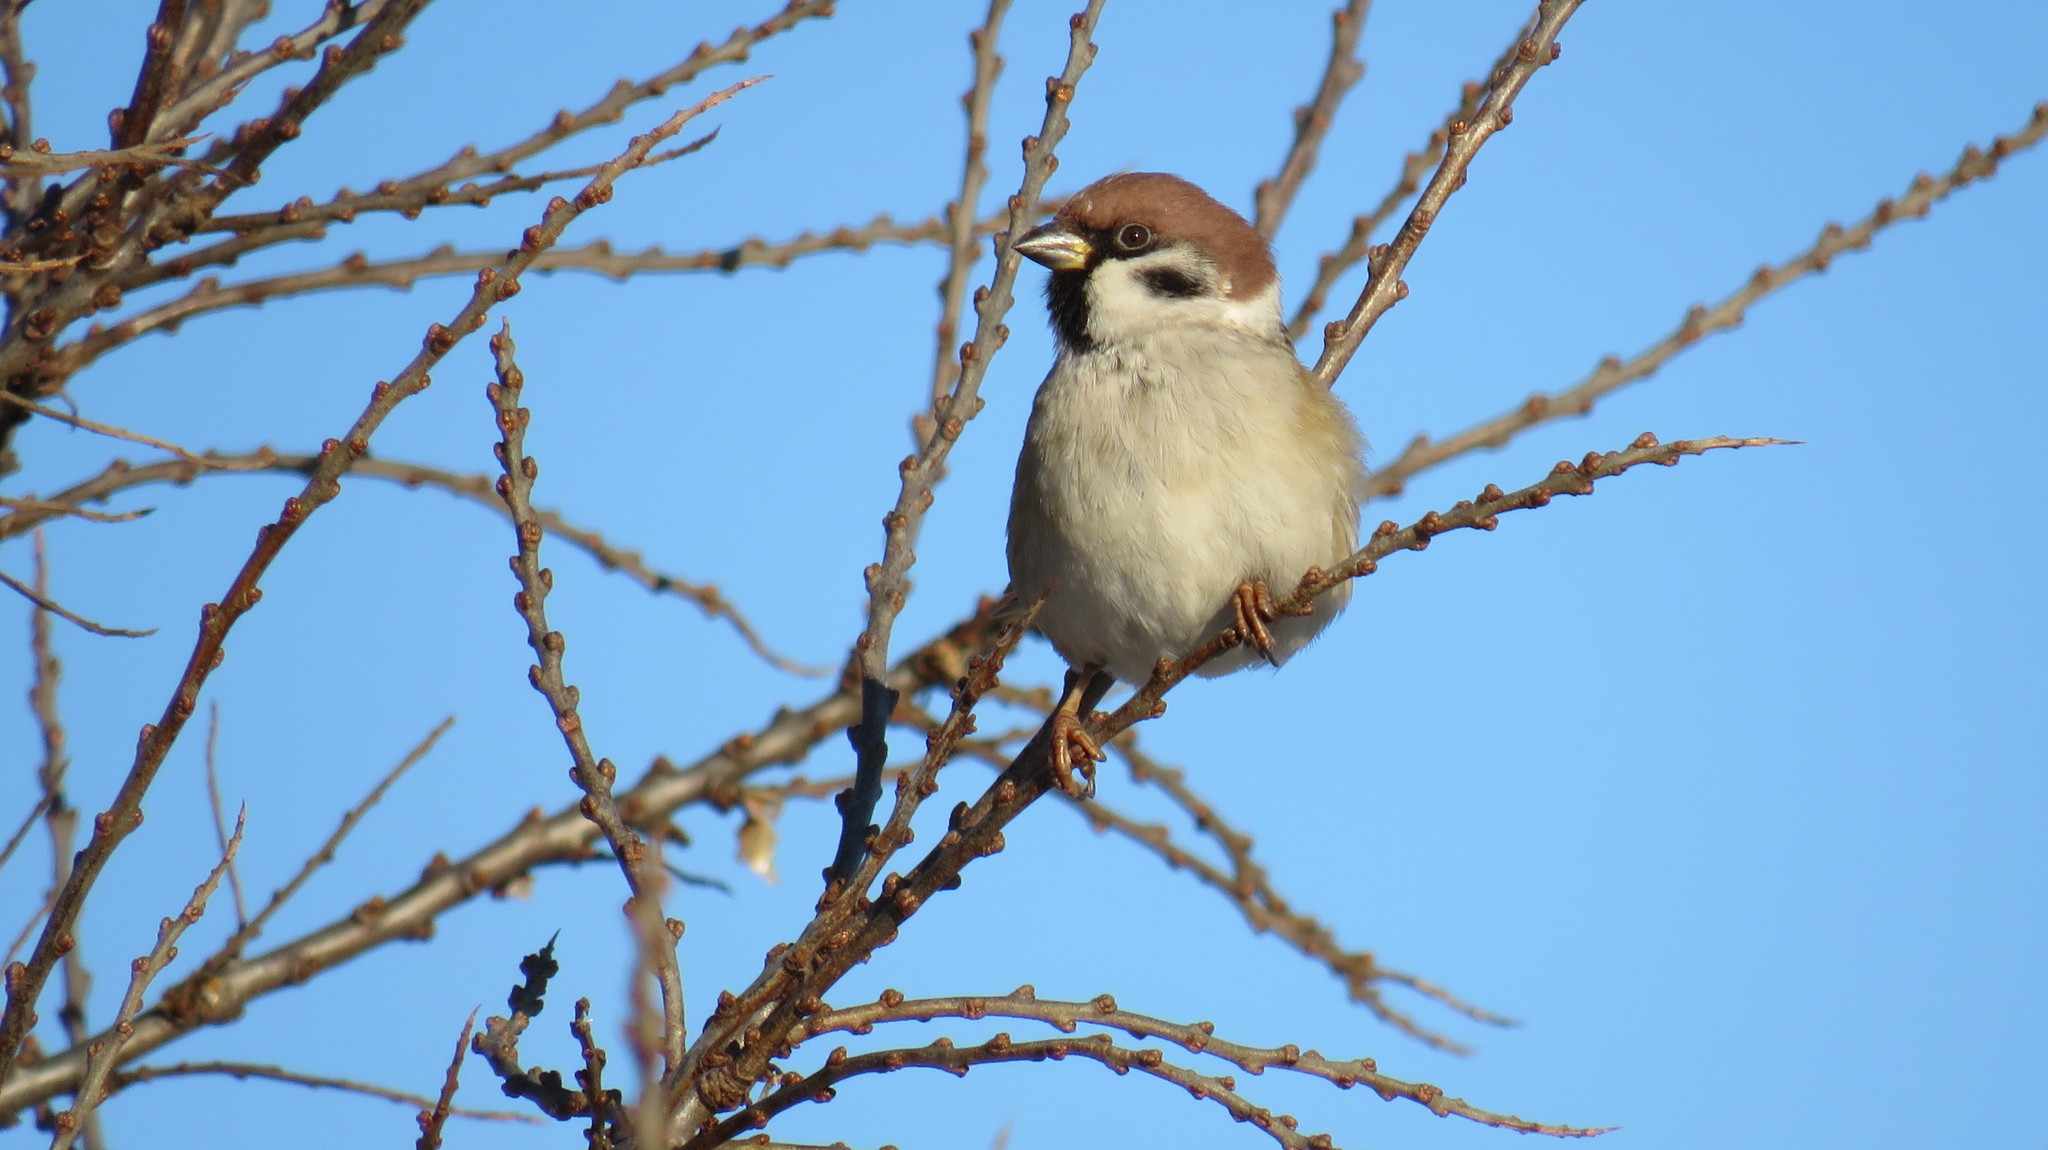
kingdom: Animalia
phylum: Chordata
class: Aves
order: Passeriformes
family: Passeridae
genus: Passer
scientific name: Passer montanus
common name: Eurasian tree sparrow
